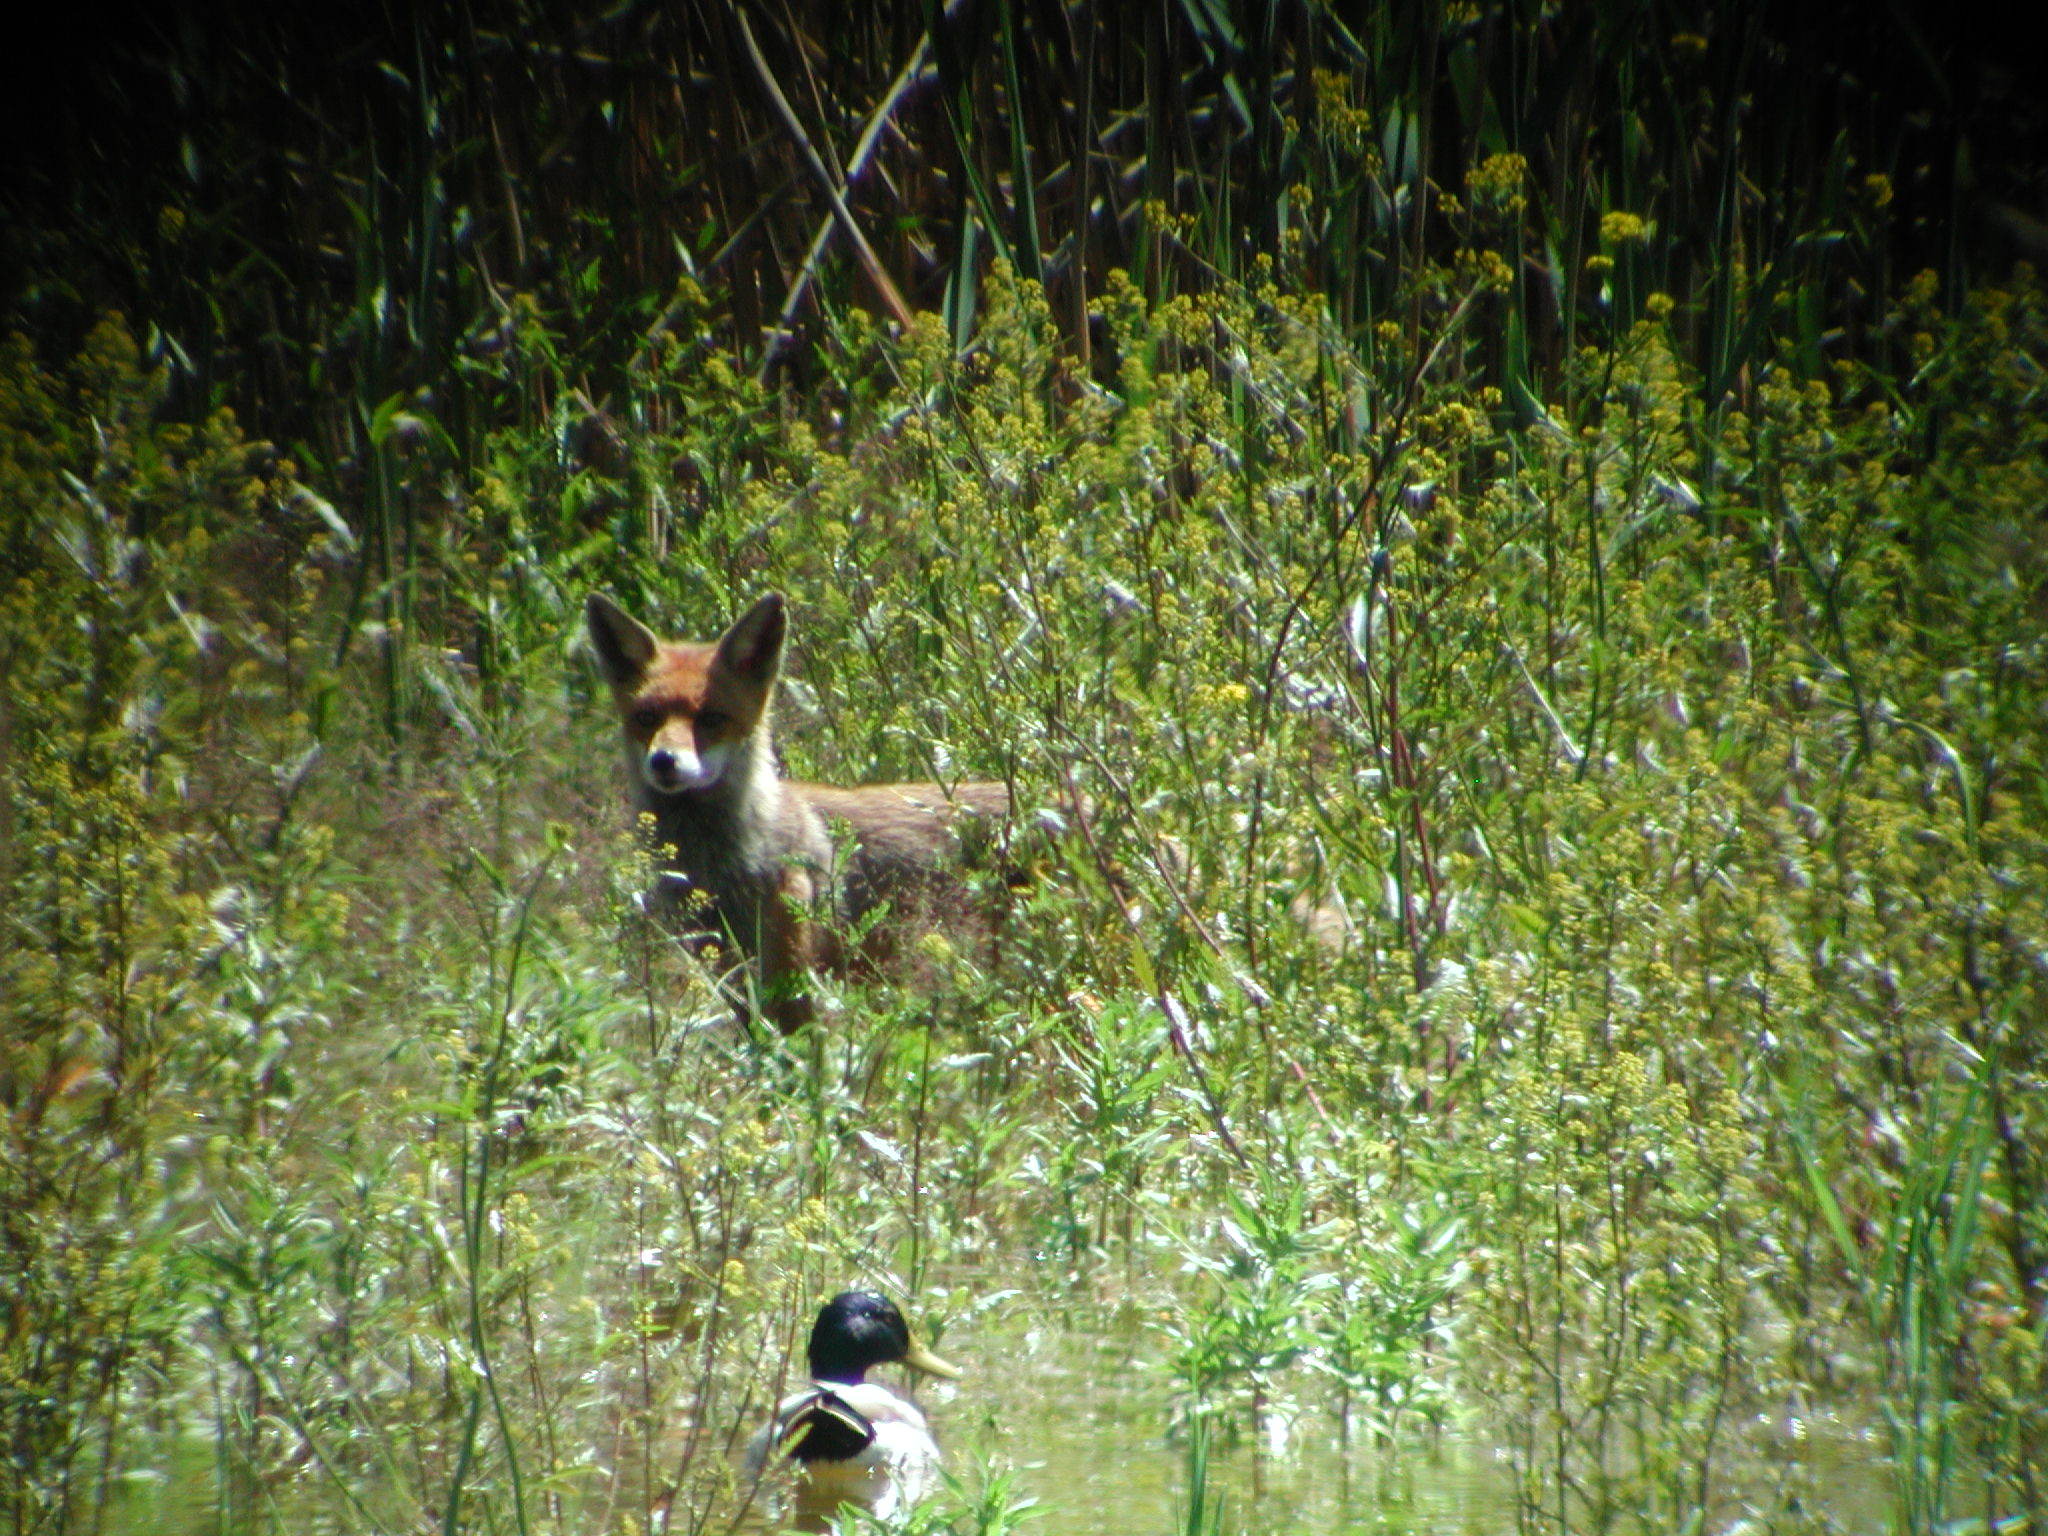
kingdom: Animalia
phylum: Chordata
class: Mammalia
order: Carnivora
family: Canidae
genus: Vulpes
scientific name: Vulpes vulpes
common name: Red fox
